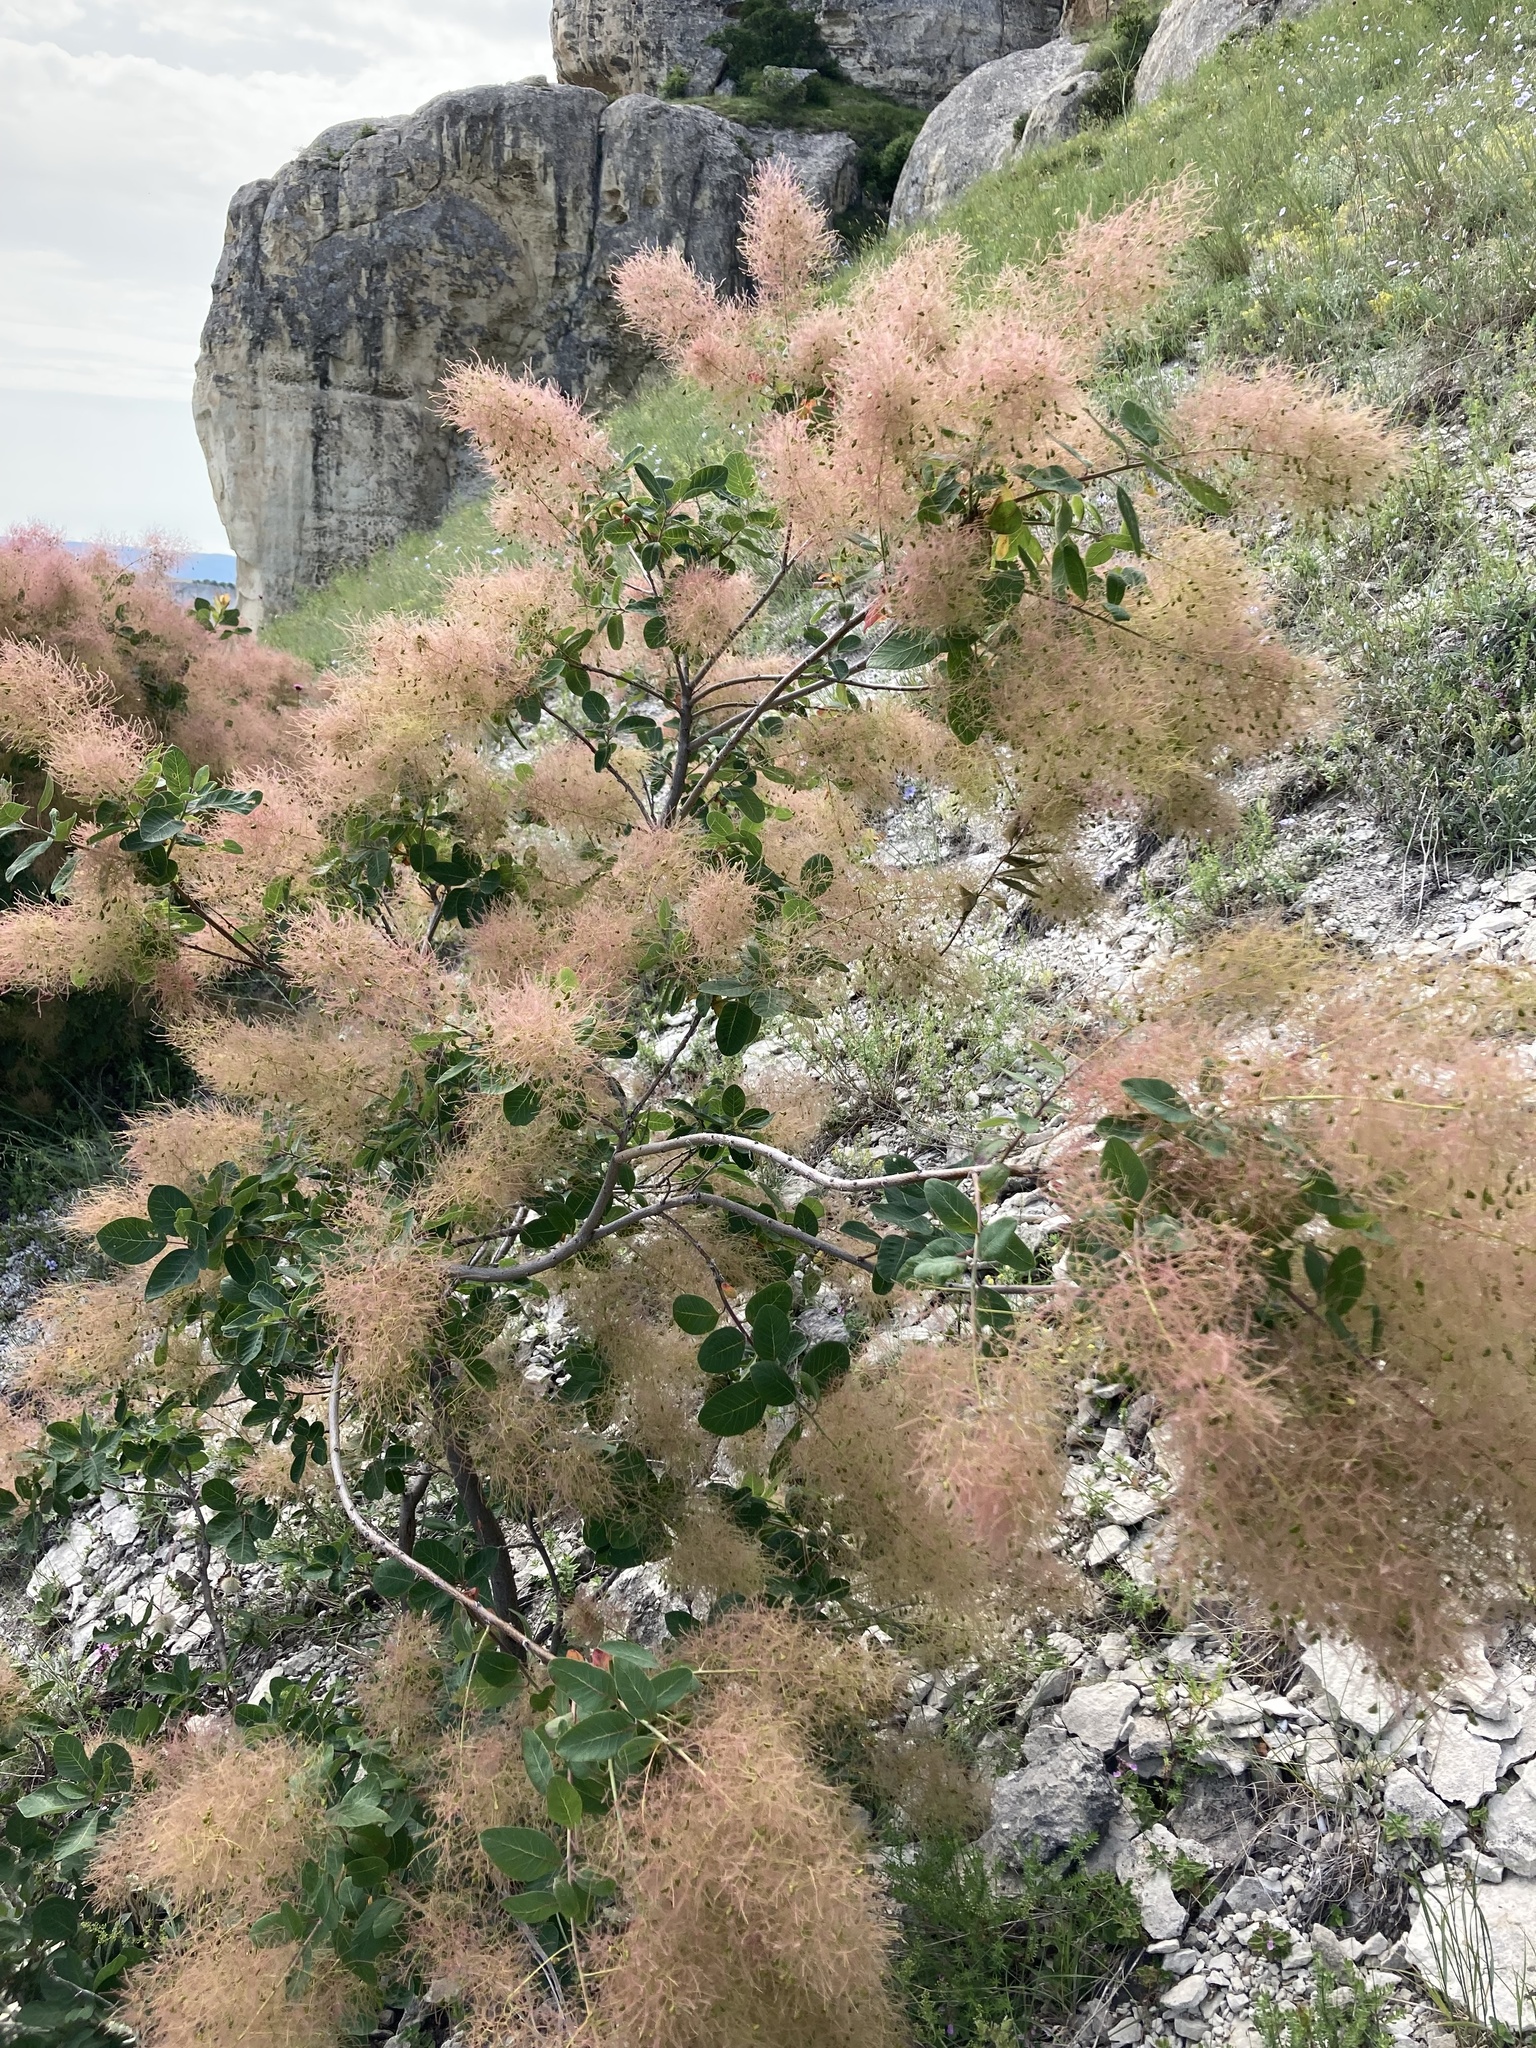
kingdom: Plantae
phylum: Tracheophyta
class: Magnoliopsida
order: Sapindales
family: Anacardiaceae
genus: Cotinus
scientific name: Cotinus coggygria
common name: Smoke-tree
